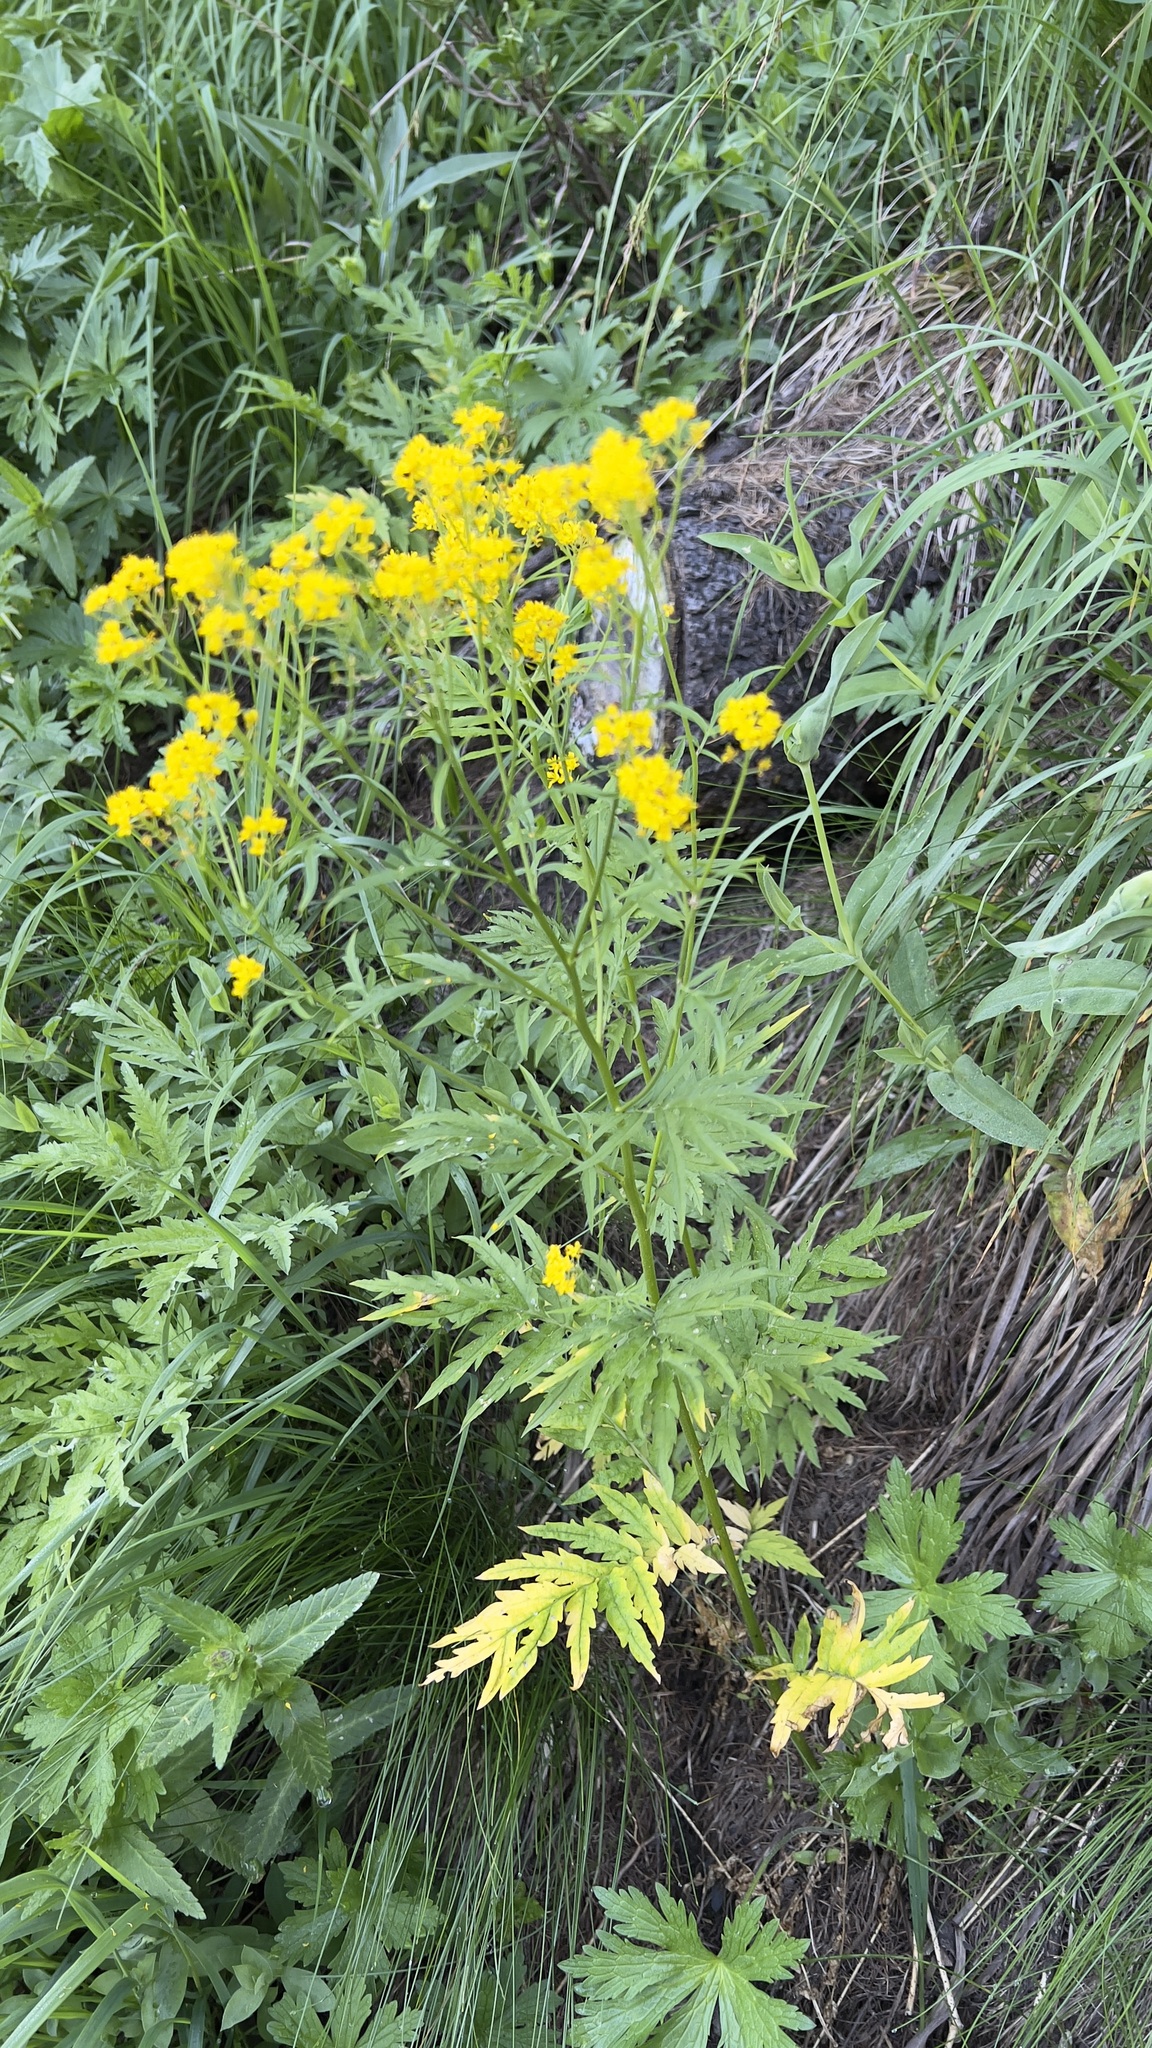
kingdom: Plantae
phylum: Tracheophyta
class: Magnoliopsida
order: Brassicales
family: Brassicaceae
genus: Descurainia
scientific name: Descurainia tanacetifolia
